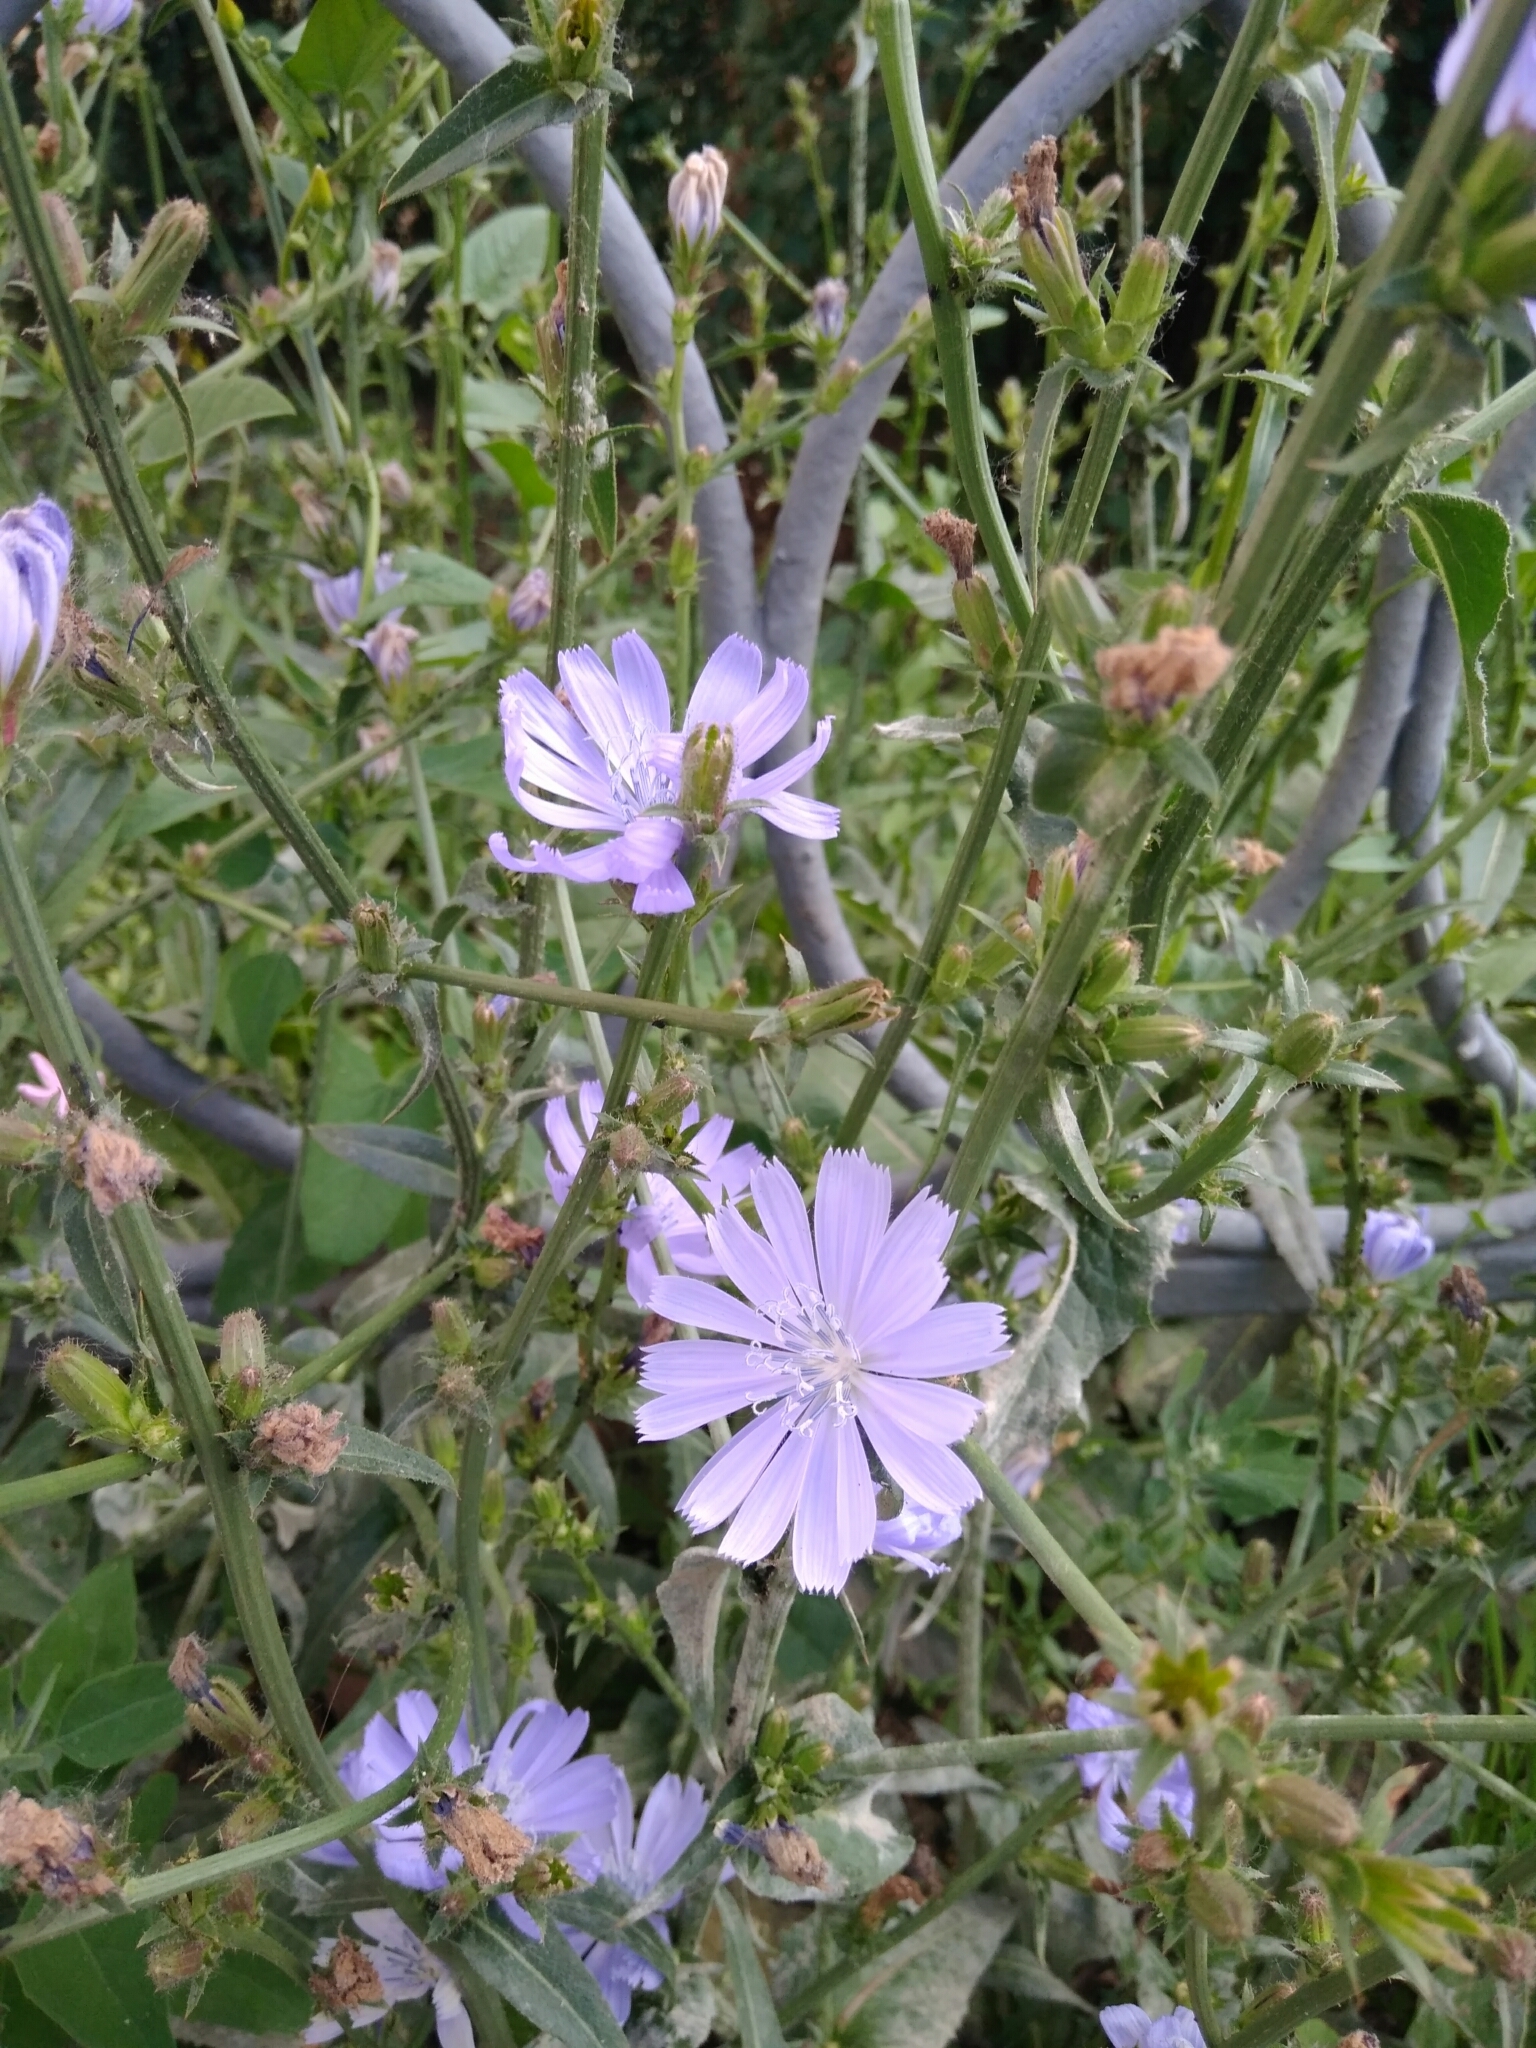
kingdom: Plantae
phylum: Tracheophyta
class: Magnoliopsida
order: Asterales
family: Asteraceae
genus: Cichorium
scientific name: Cichorium intybus
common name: Chicory
